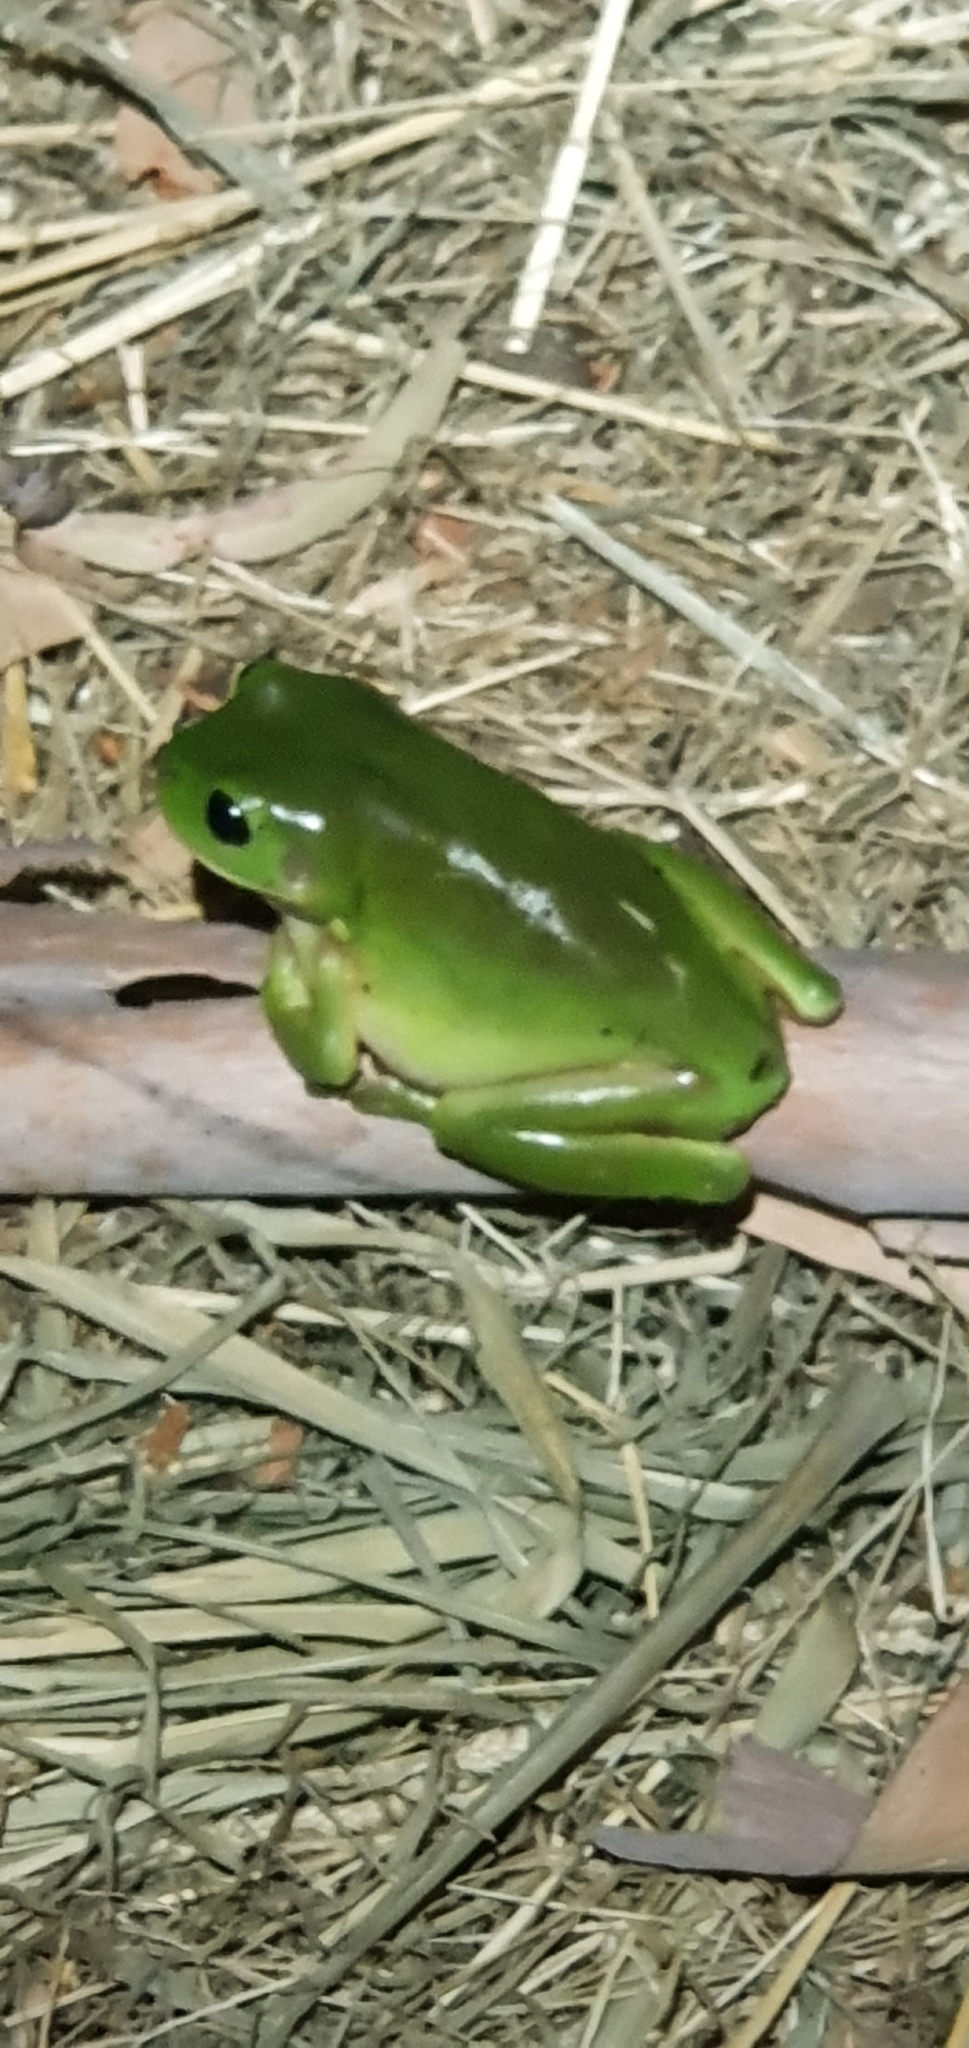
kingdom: Animalia
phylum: Chordata
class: Amphibia
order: Anura
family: Pelodryadidae
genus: Ranoidea
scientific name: Ranoidea caerulea
